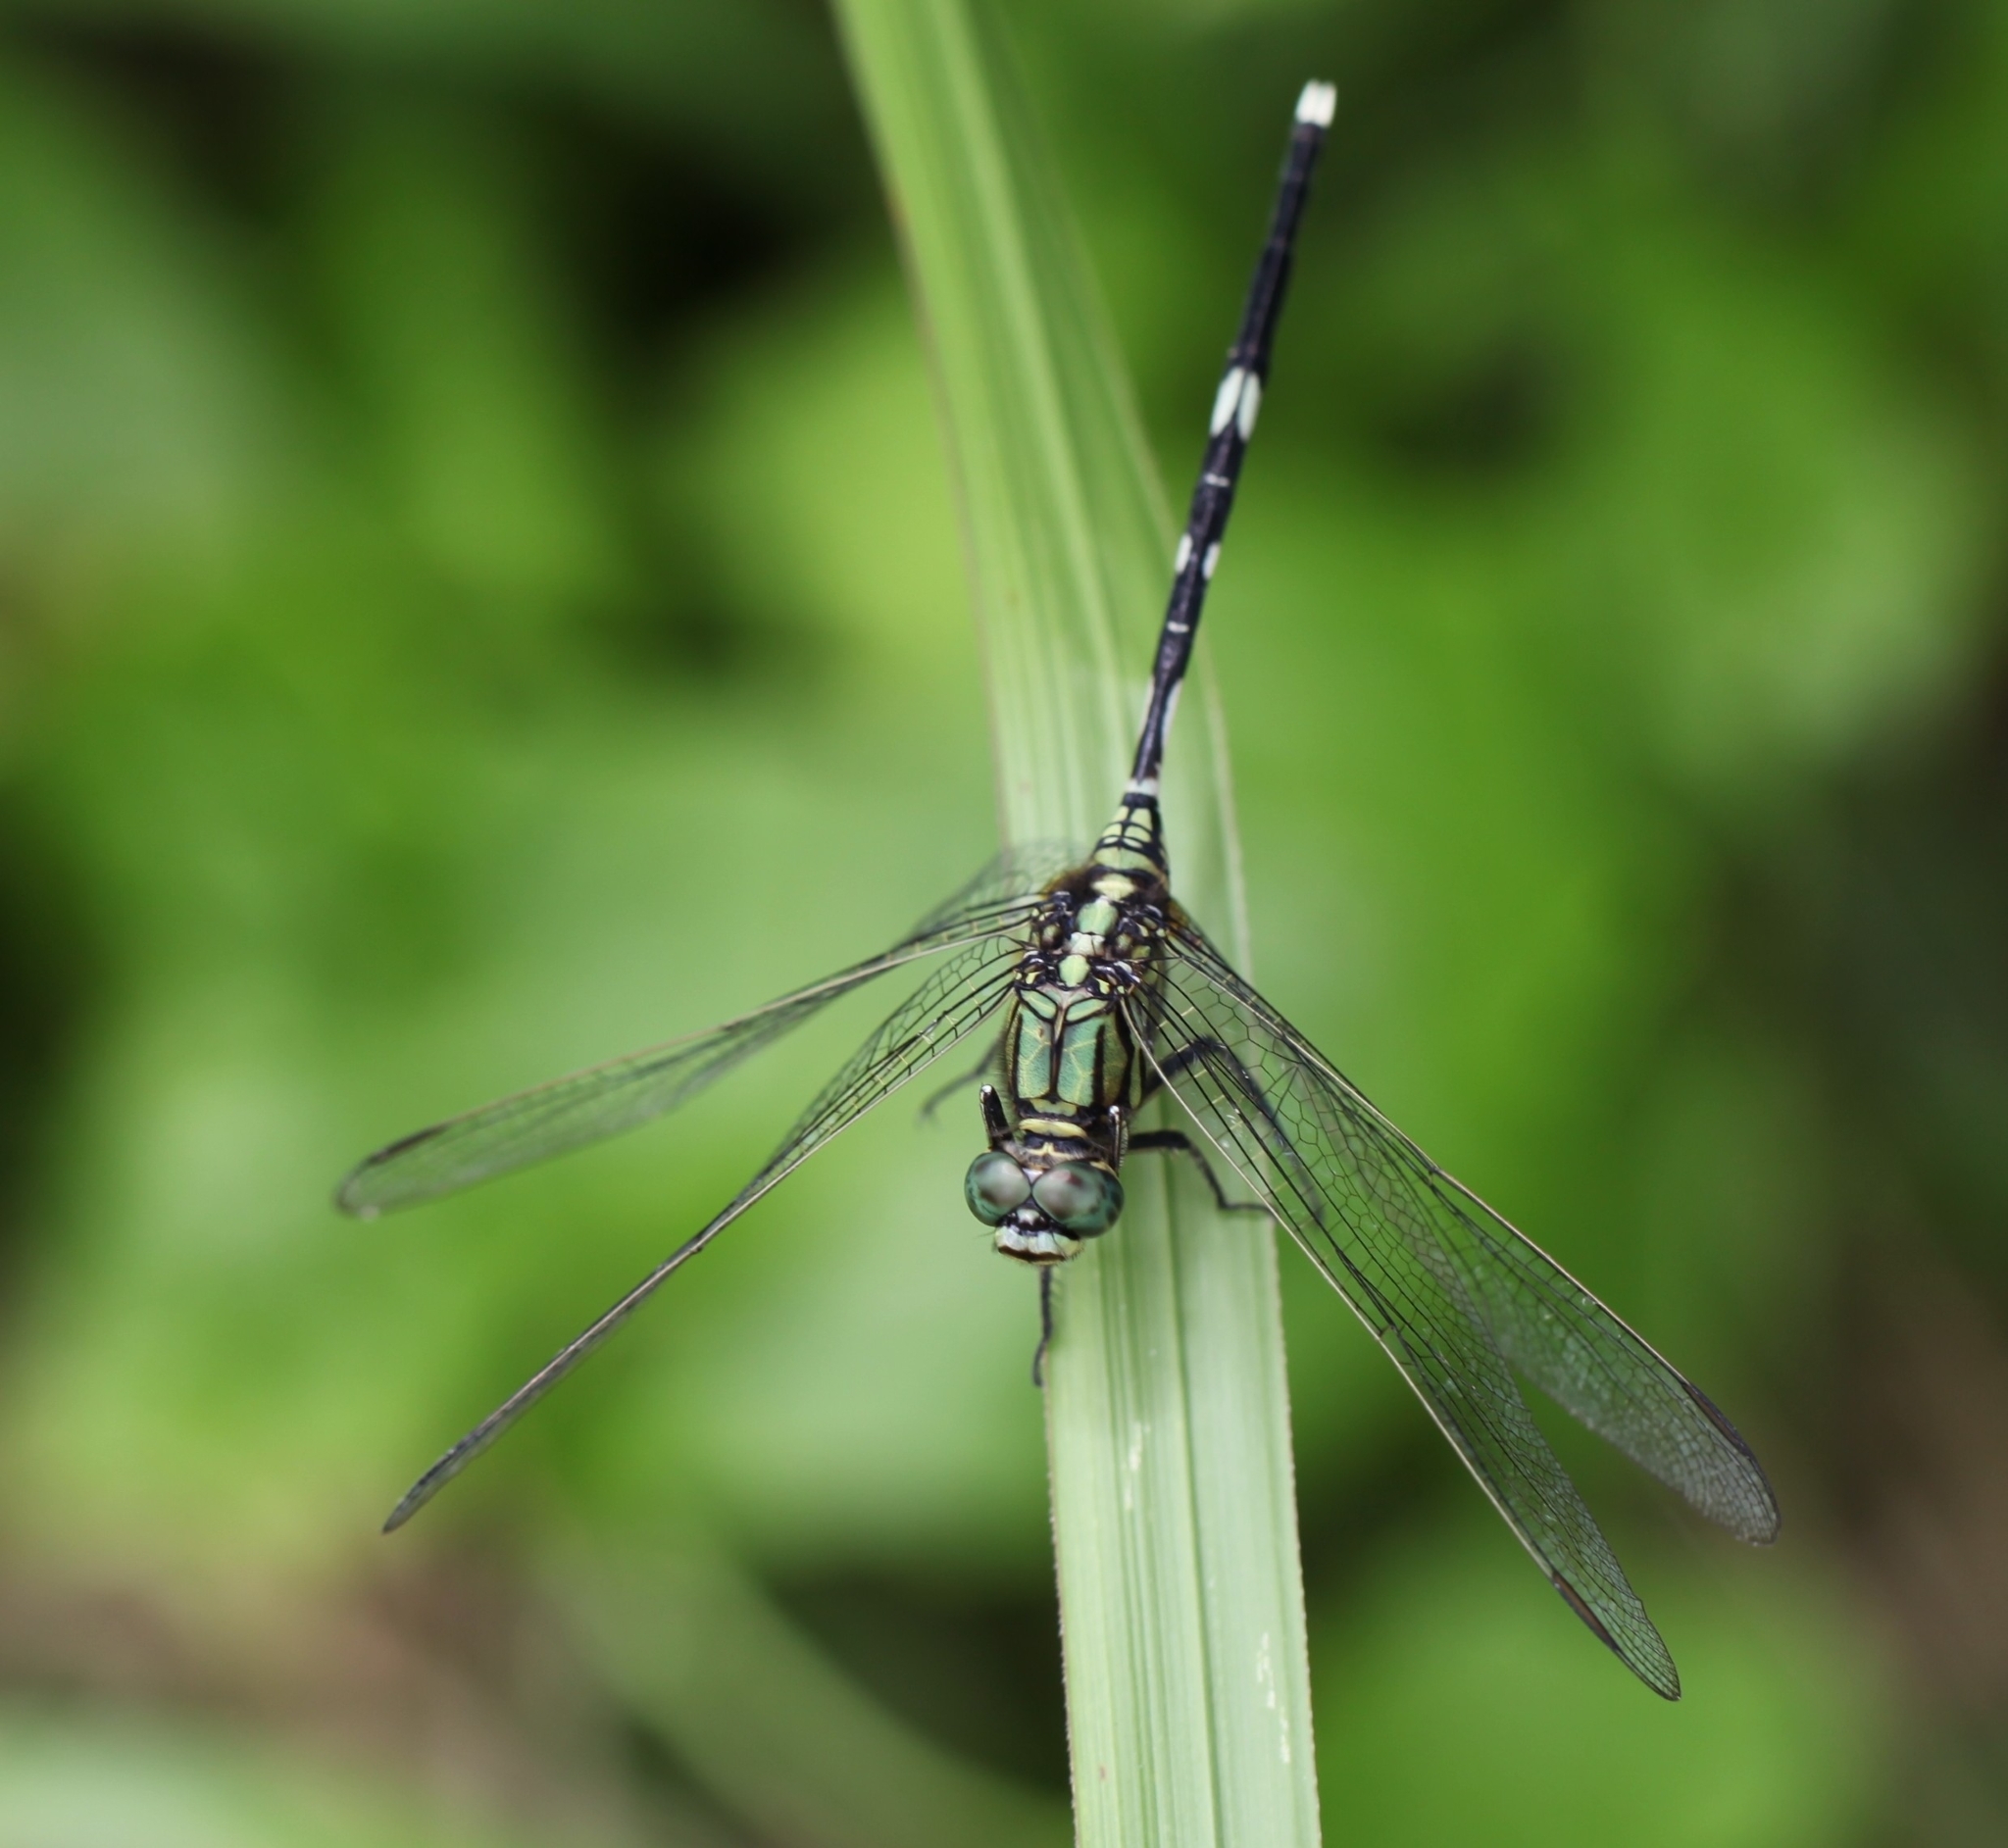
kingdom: Animalia
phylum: Arthropoda
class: Insecta
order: Odonata
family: Libellulidae
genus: Orthetrum
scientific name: Orthetrum sabina
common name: Slender skimmer
